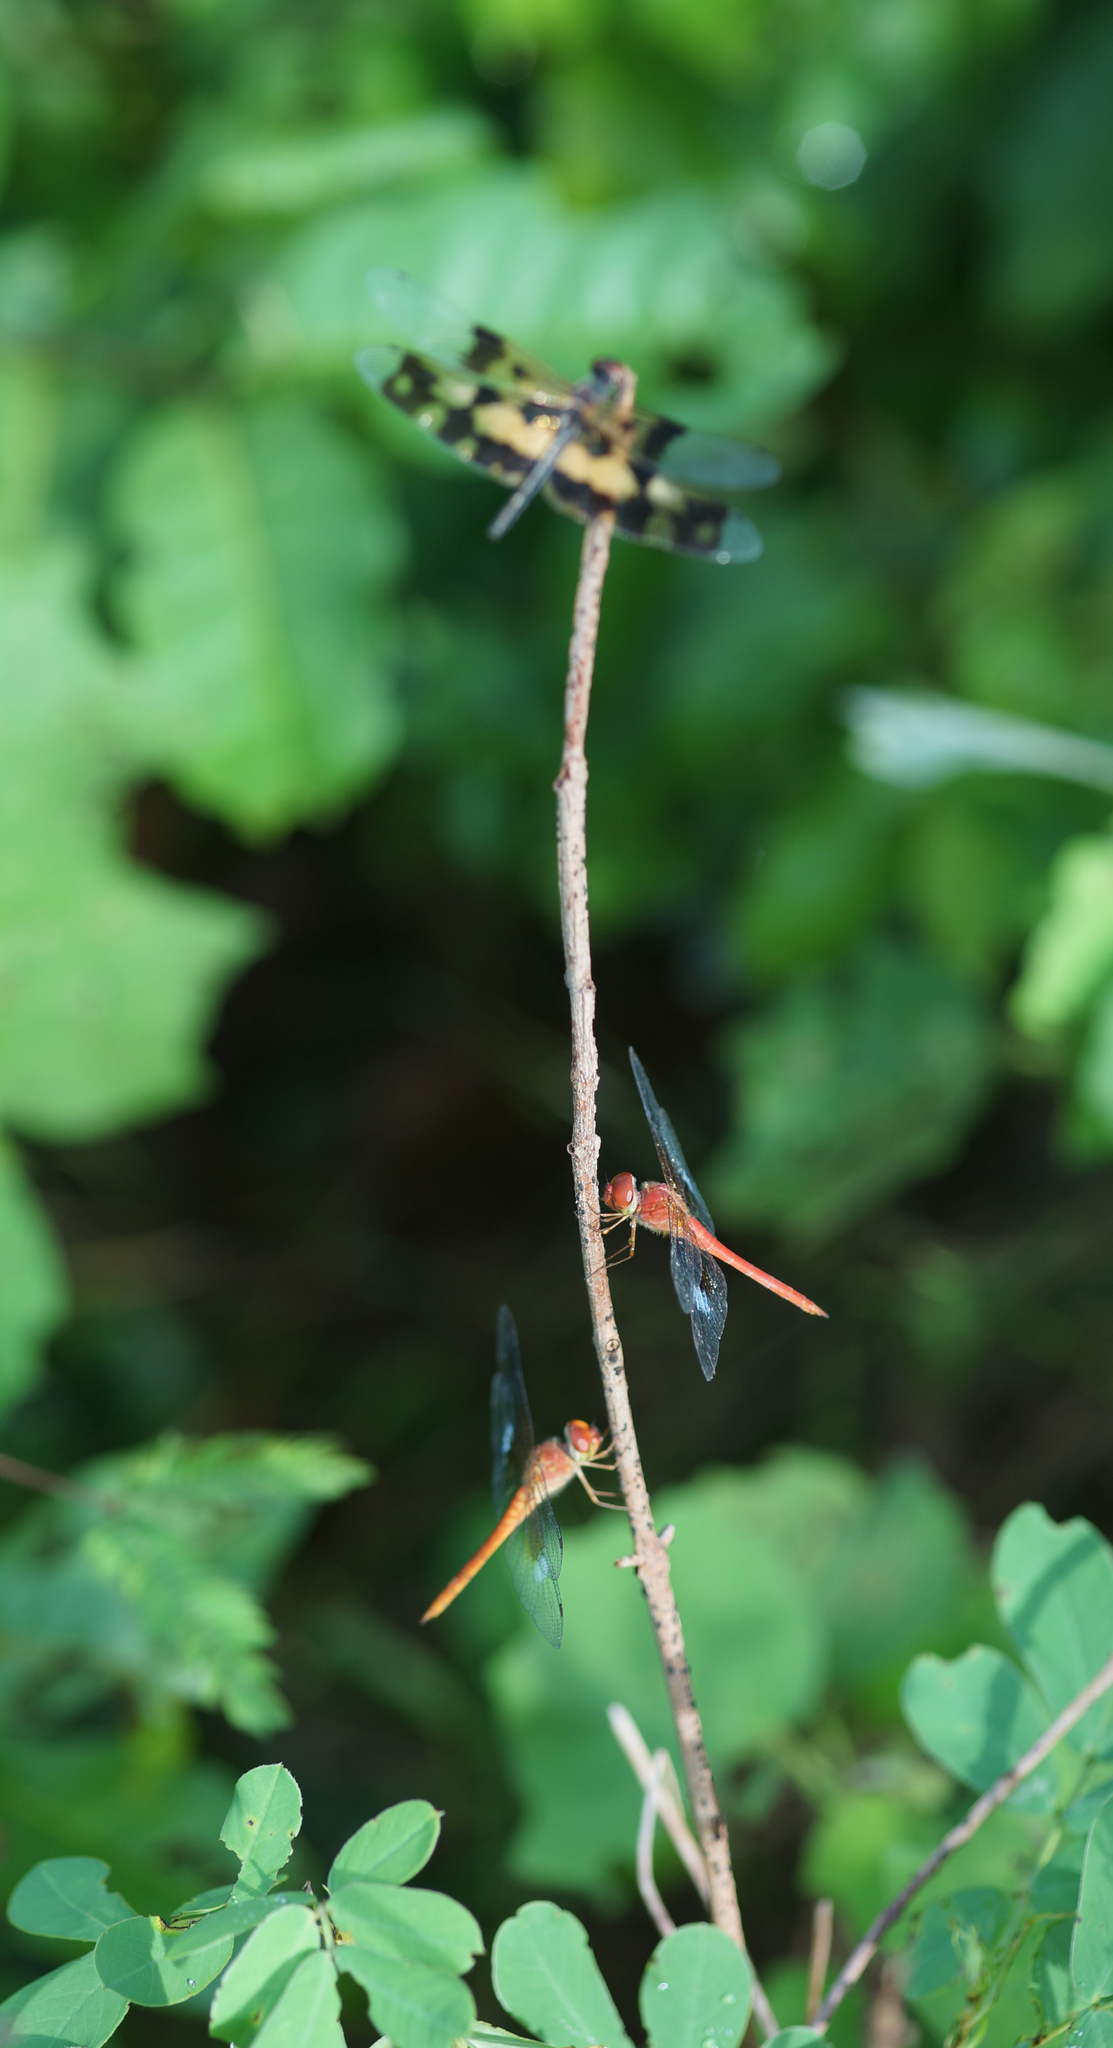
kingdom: Animalia
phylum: Arthropoda
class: Insecta
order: Odonata
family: Libellulidae
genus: Tholymis
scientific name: Tholymis tillarga
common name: Coral-tailed cloud wing
